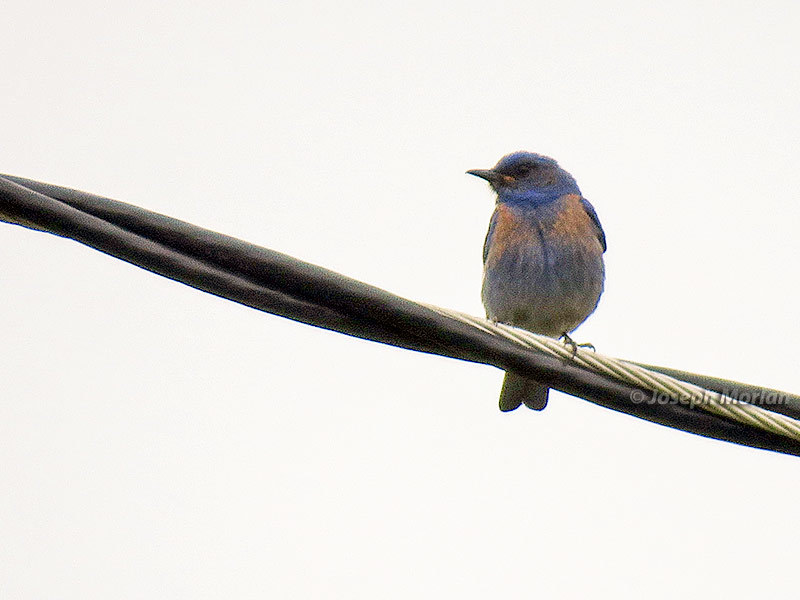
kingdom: Animalia
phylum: Chordata
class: Aves
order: Passeriformes
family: Turdidae
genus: Sialia
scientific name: Sialia mexicana
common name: Western bluebird
